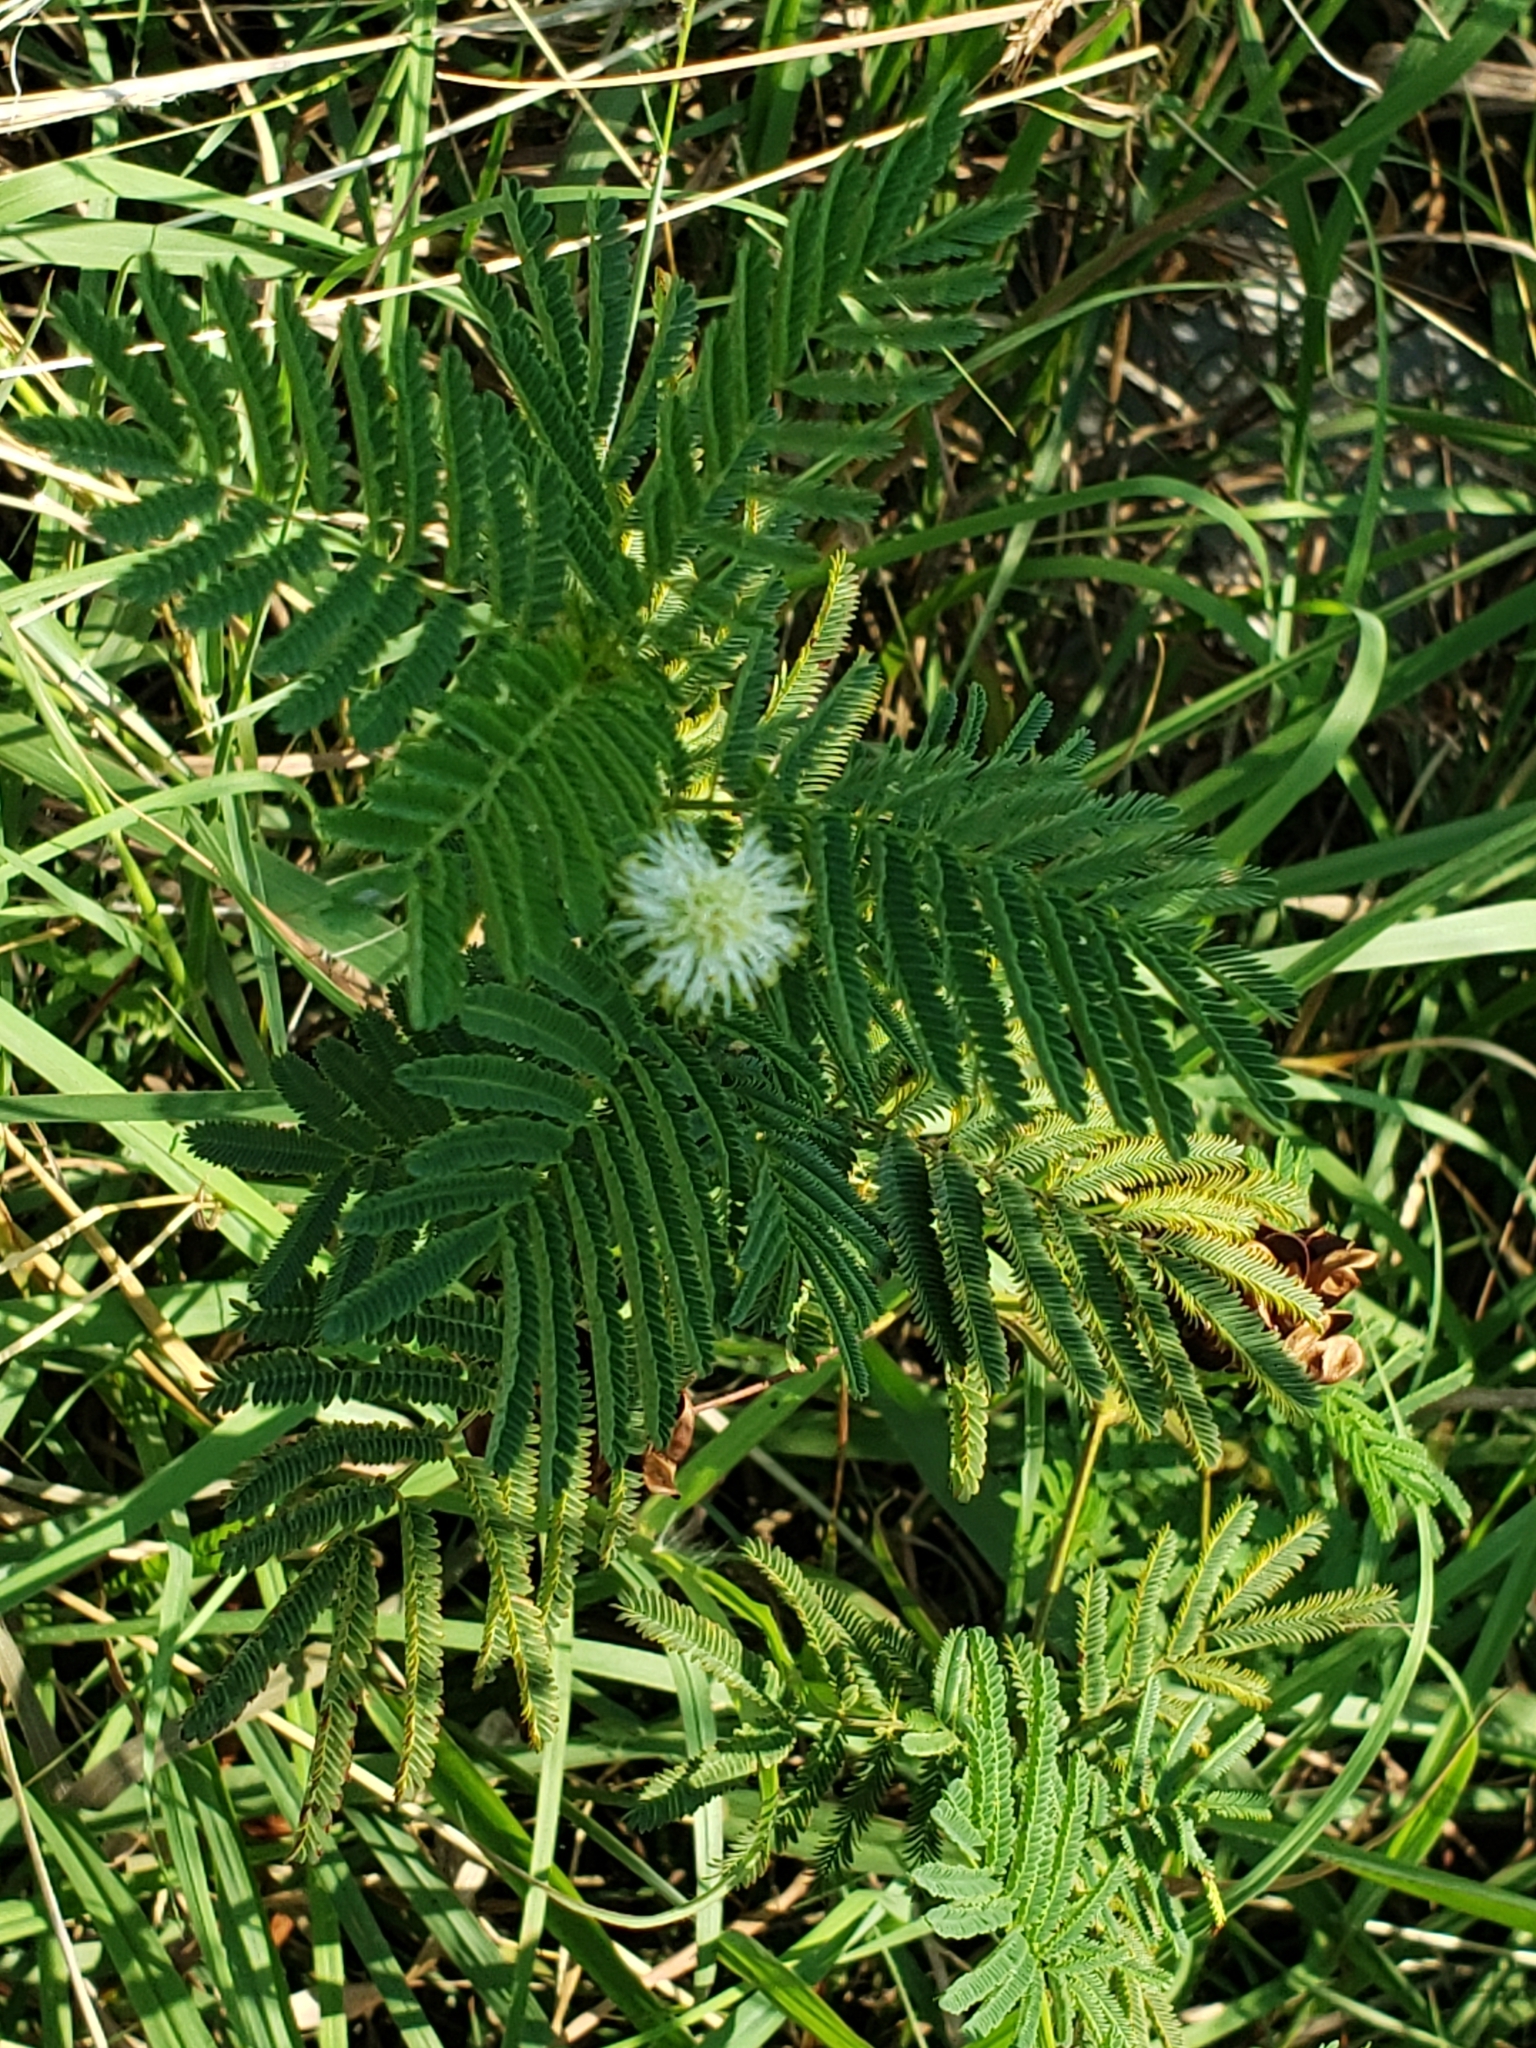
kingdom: Plantae
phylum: Tracheophyta
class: Magnoliopsida
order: Fabales
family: Fabaceae
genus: Desmanthus
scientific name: Desmanthus illinoensis
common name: Illinois bundle-flower
